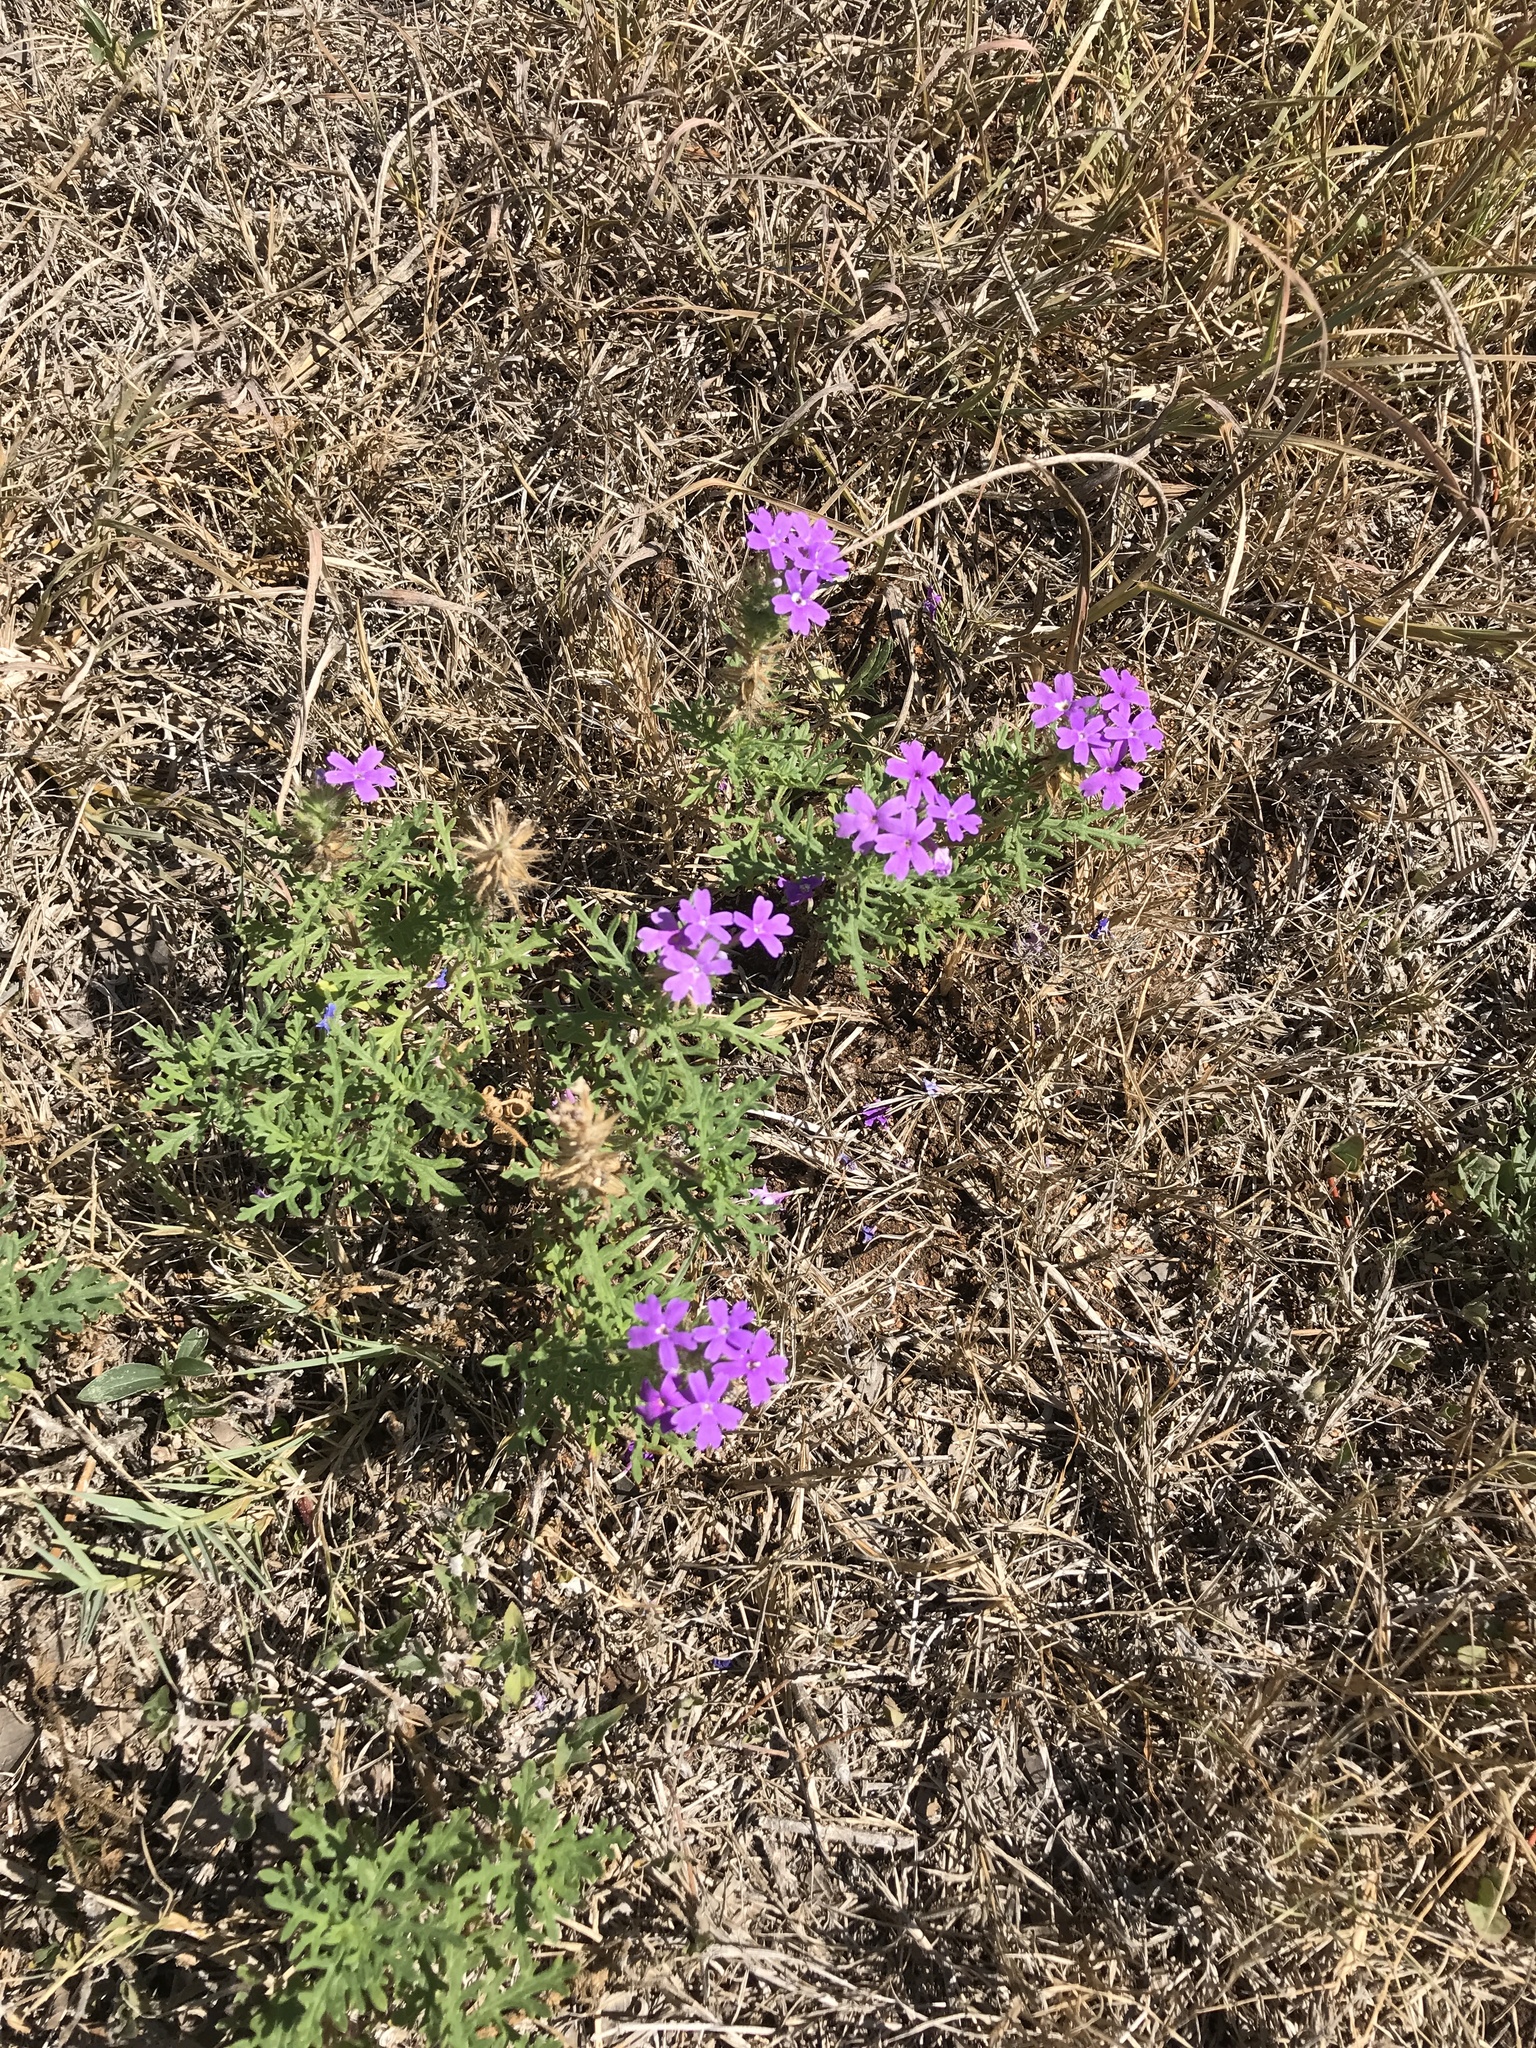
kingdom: Plantae
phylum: Tracheophyta
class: Magnoliopsida
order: Lamiales
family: Verbenaceae
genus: Verbena
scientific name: Verbena bipinnatifida
